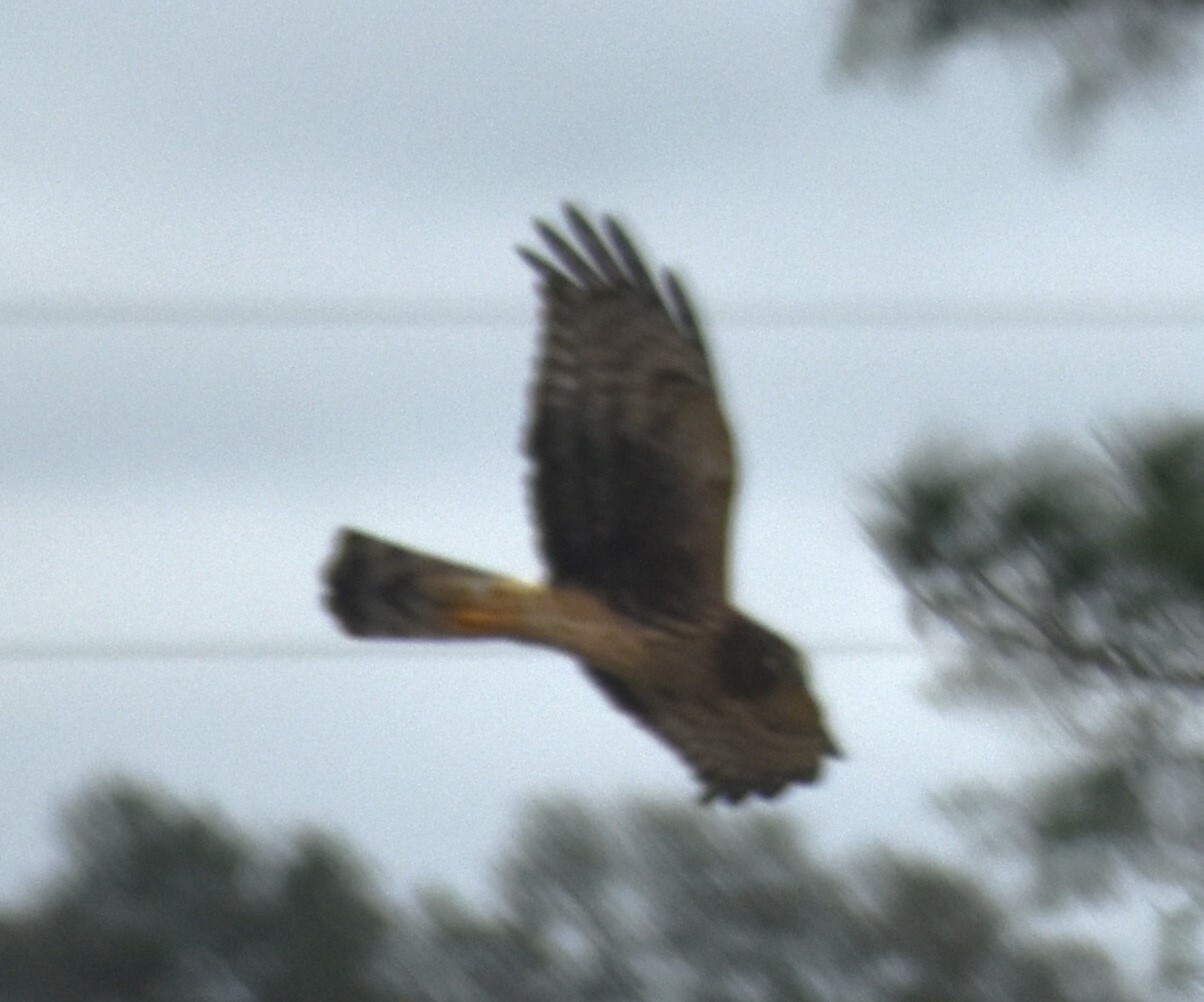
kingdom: Animalia
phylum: Chordata
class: Aves
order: Accipitriformes
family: Accipitridae
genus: Circus
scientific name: Circus cyaneus
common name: Hen harrier
